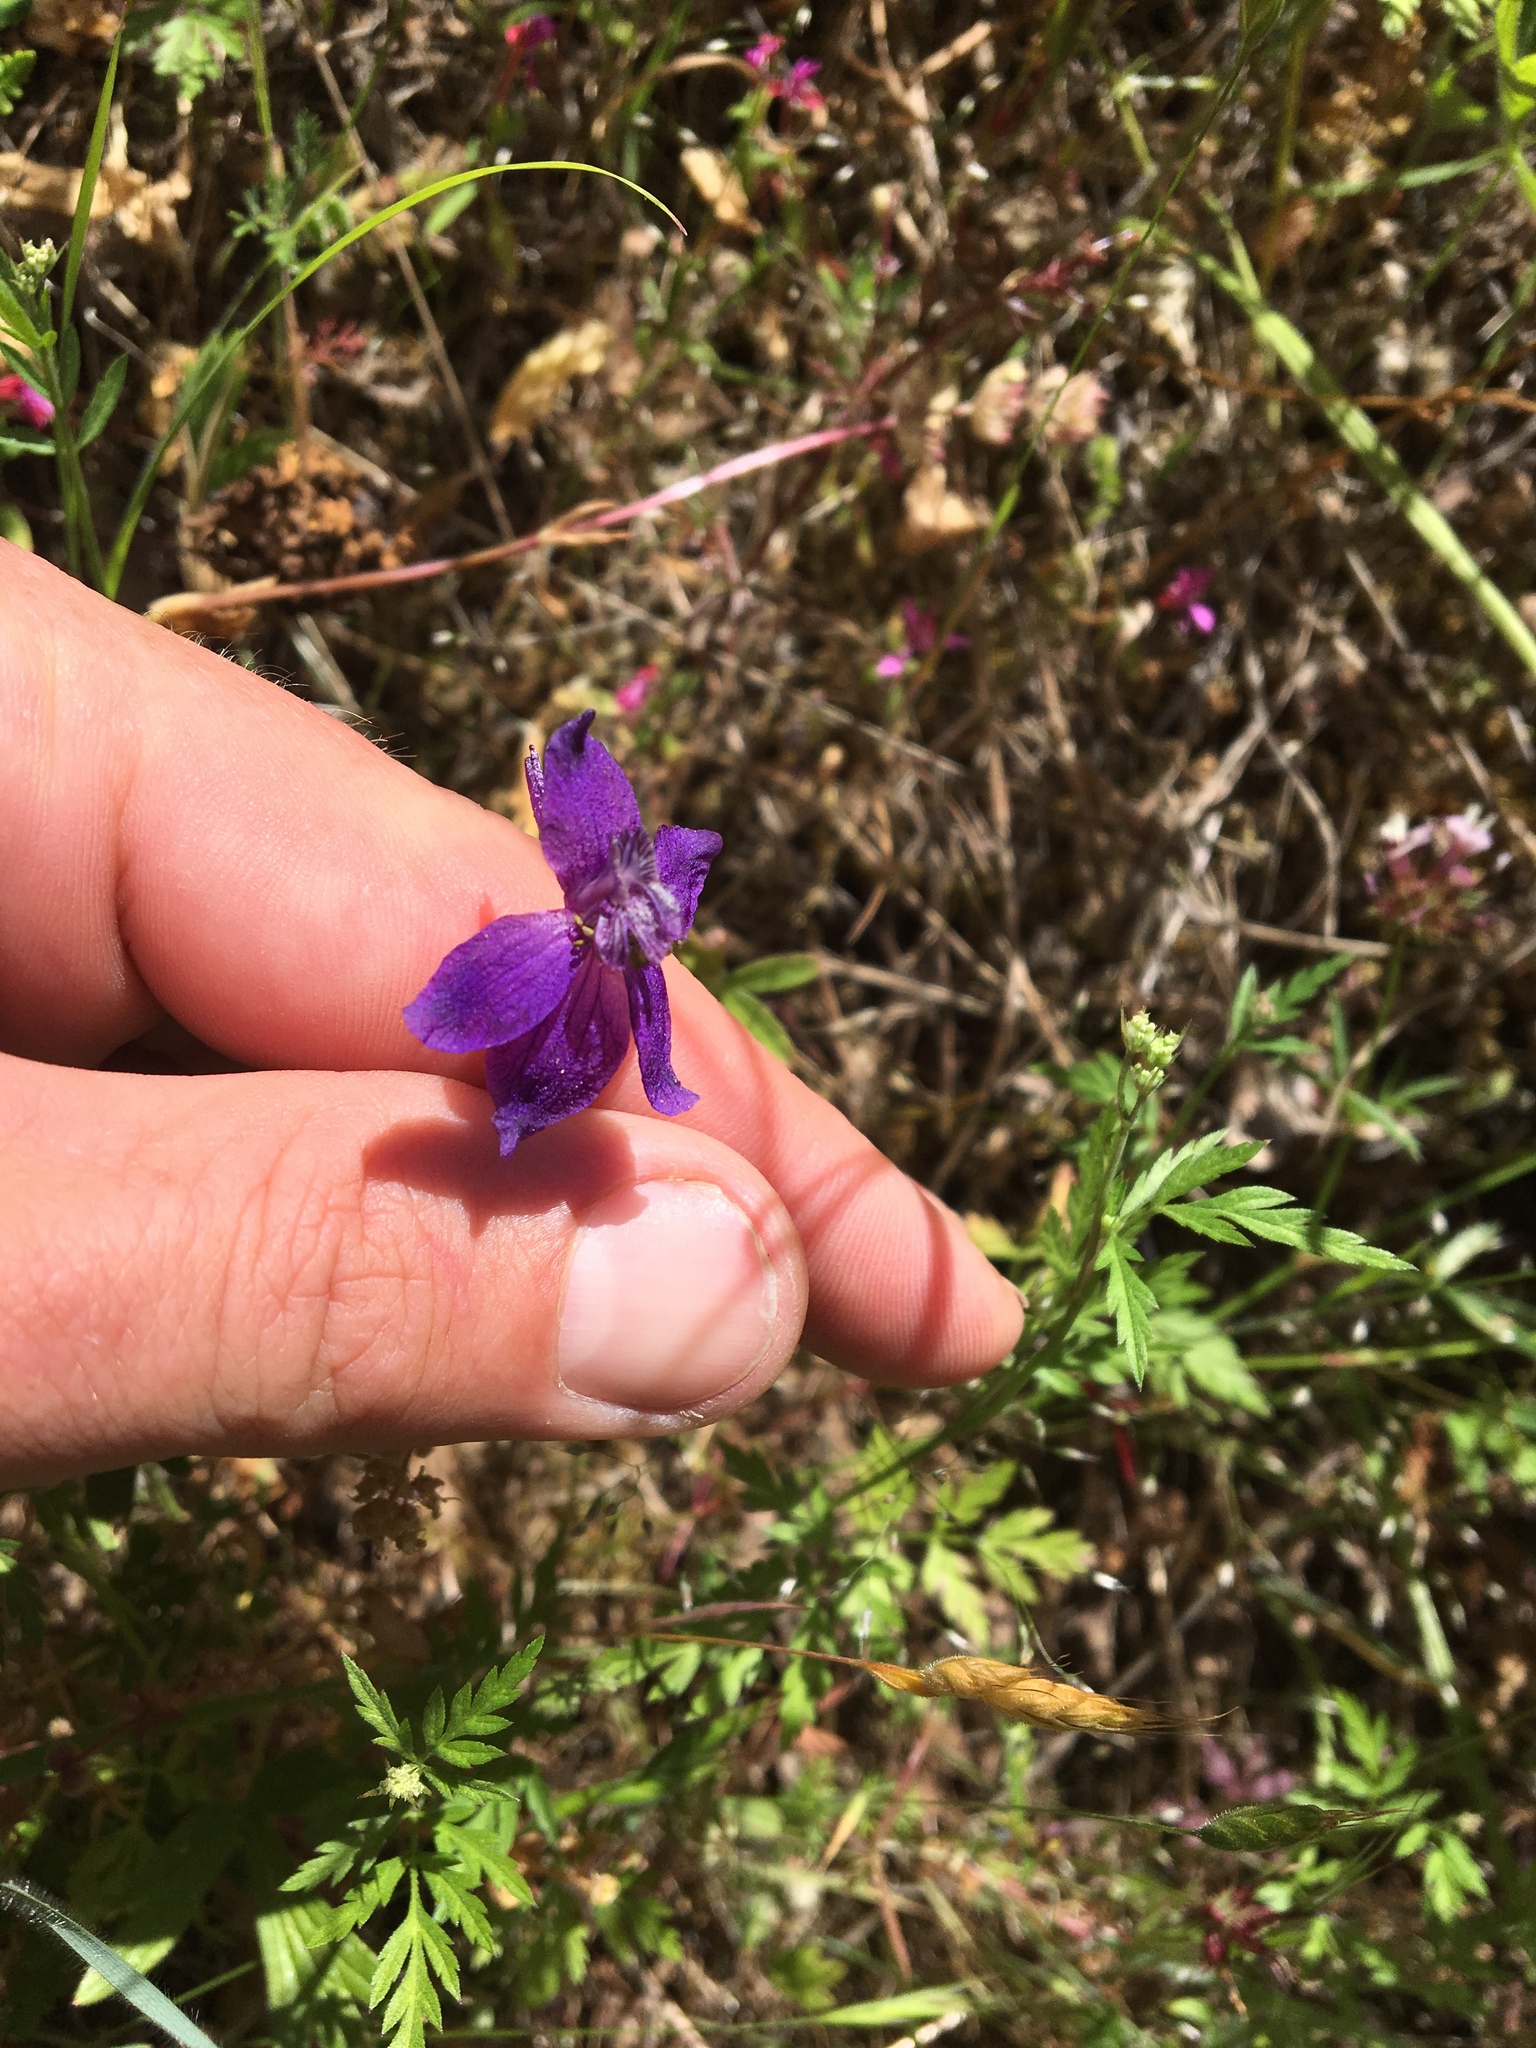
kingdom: Plantae
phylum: Tracheophyta
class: Magnoliopsida
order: Ranunculales
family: Ranunculaceae
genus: Delphinium
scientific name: Delphinium patens
